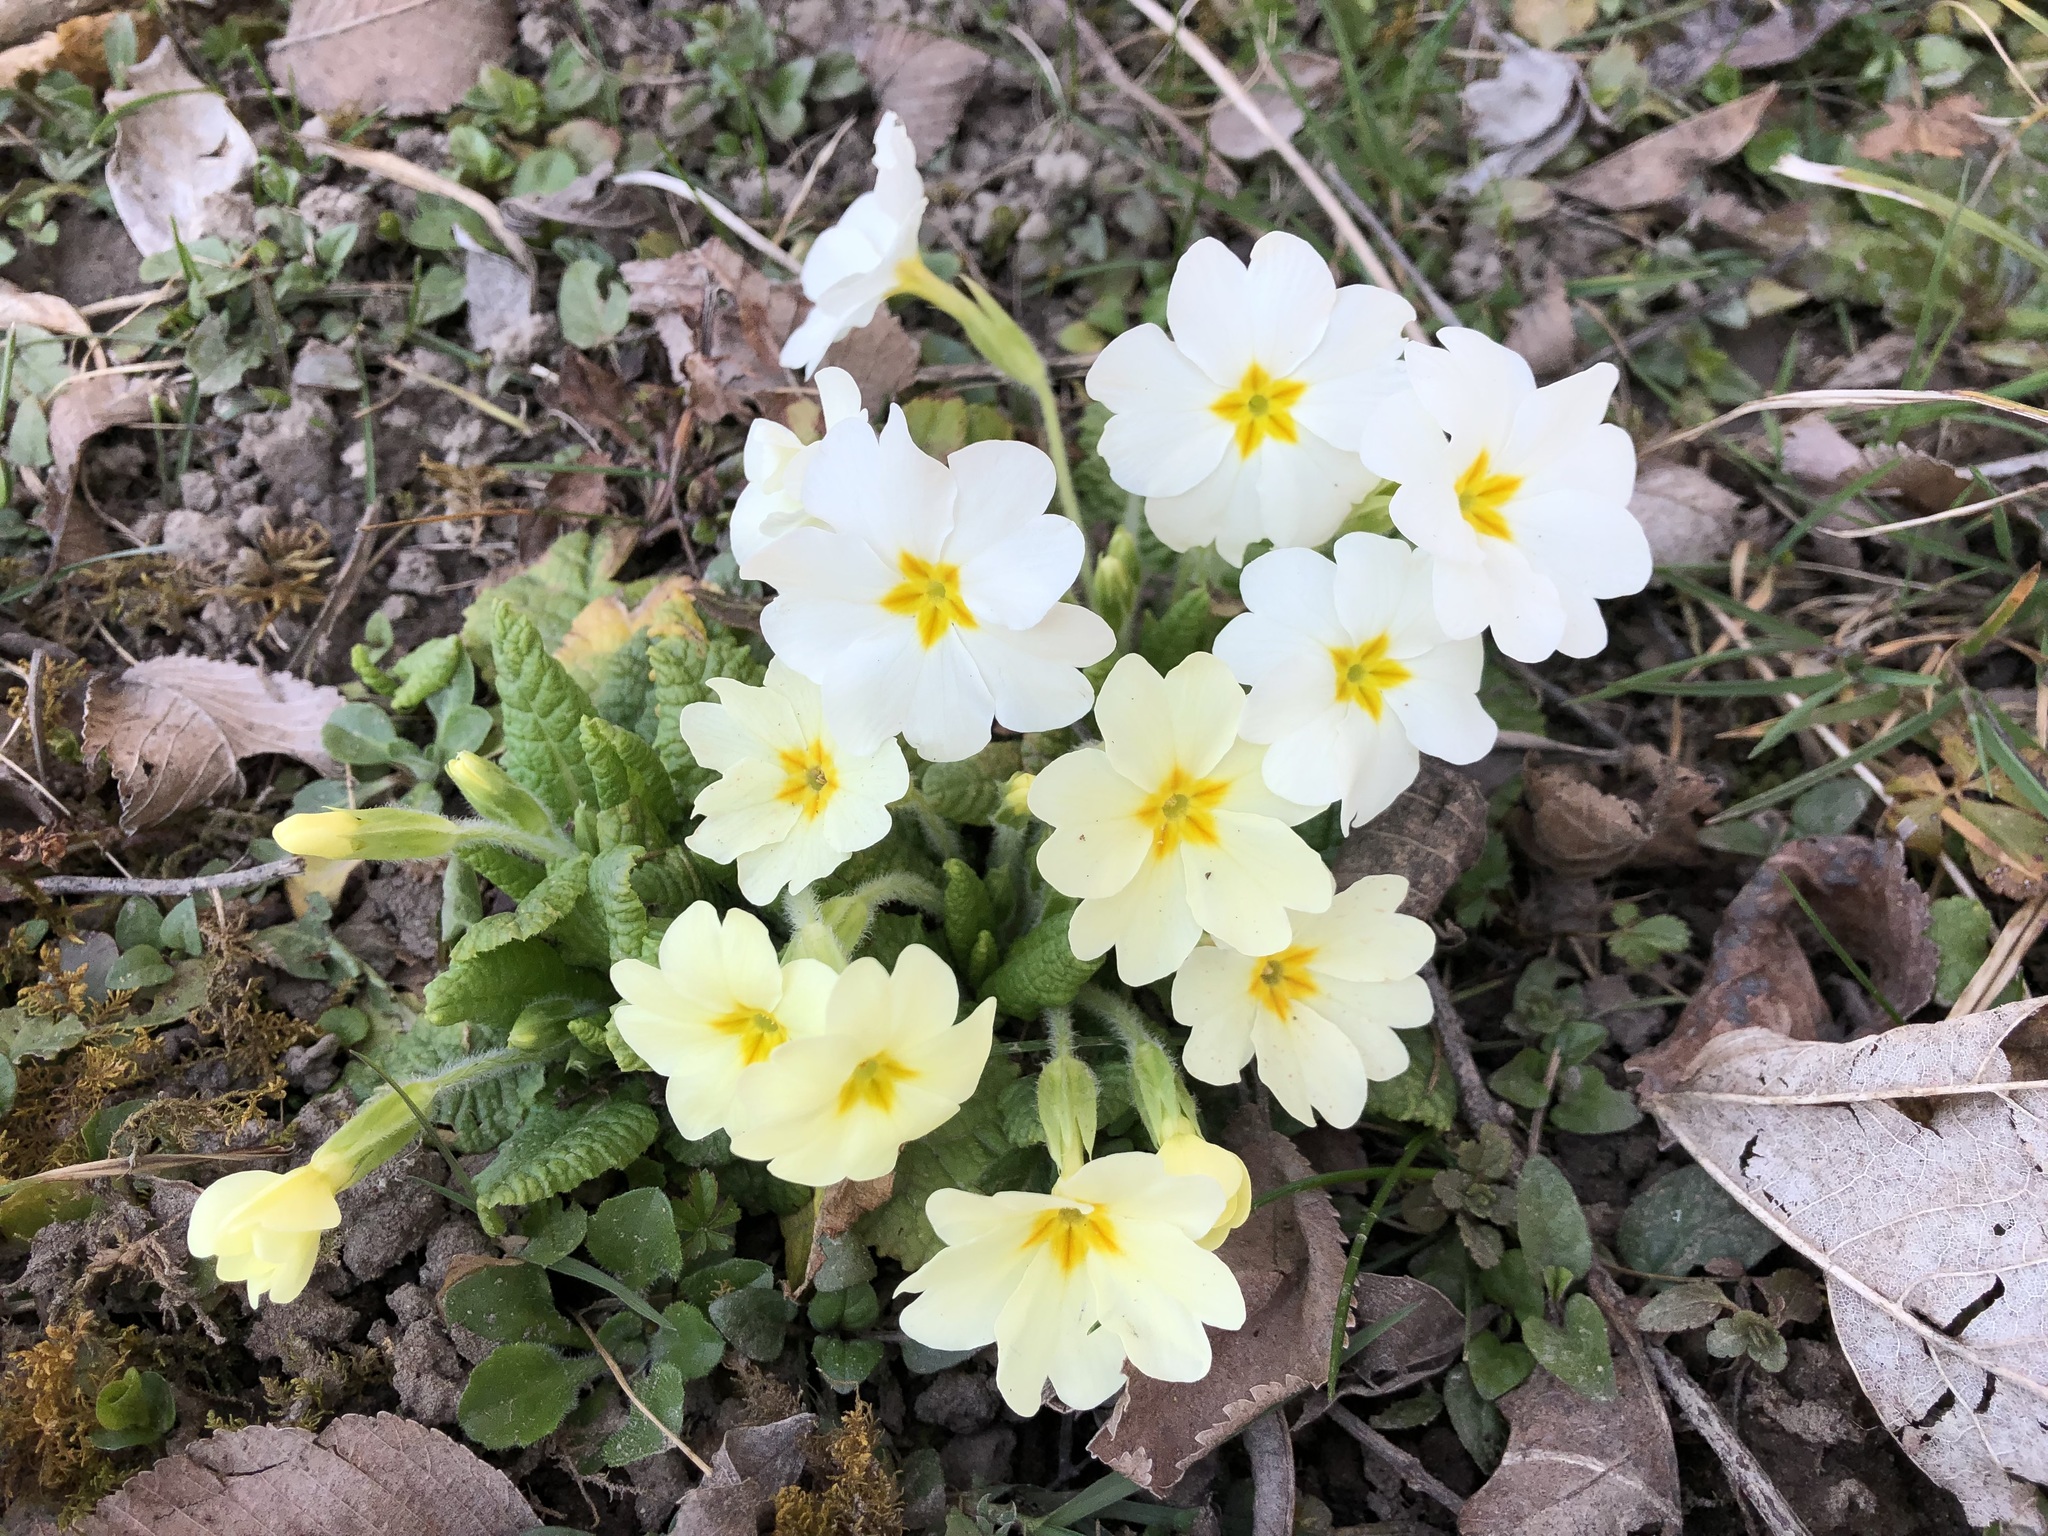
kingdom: Plantae
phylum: Tracheophyta
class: Magnoliopsida
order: Ericales
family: Primulaceae
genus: Primula
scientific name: Primula vulgaris
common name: Primrose
